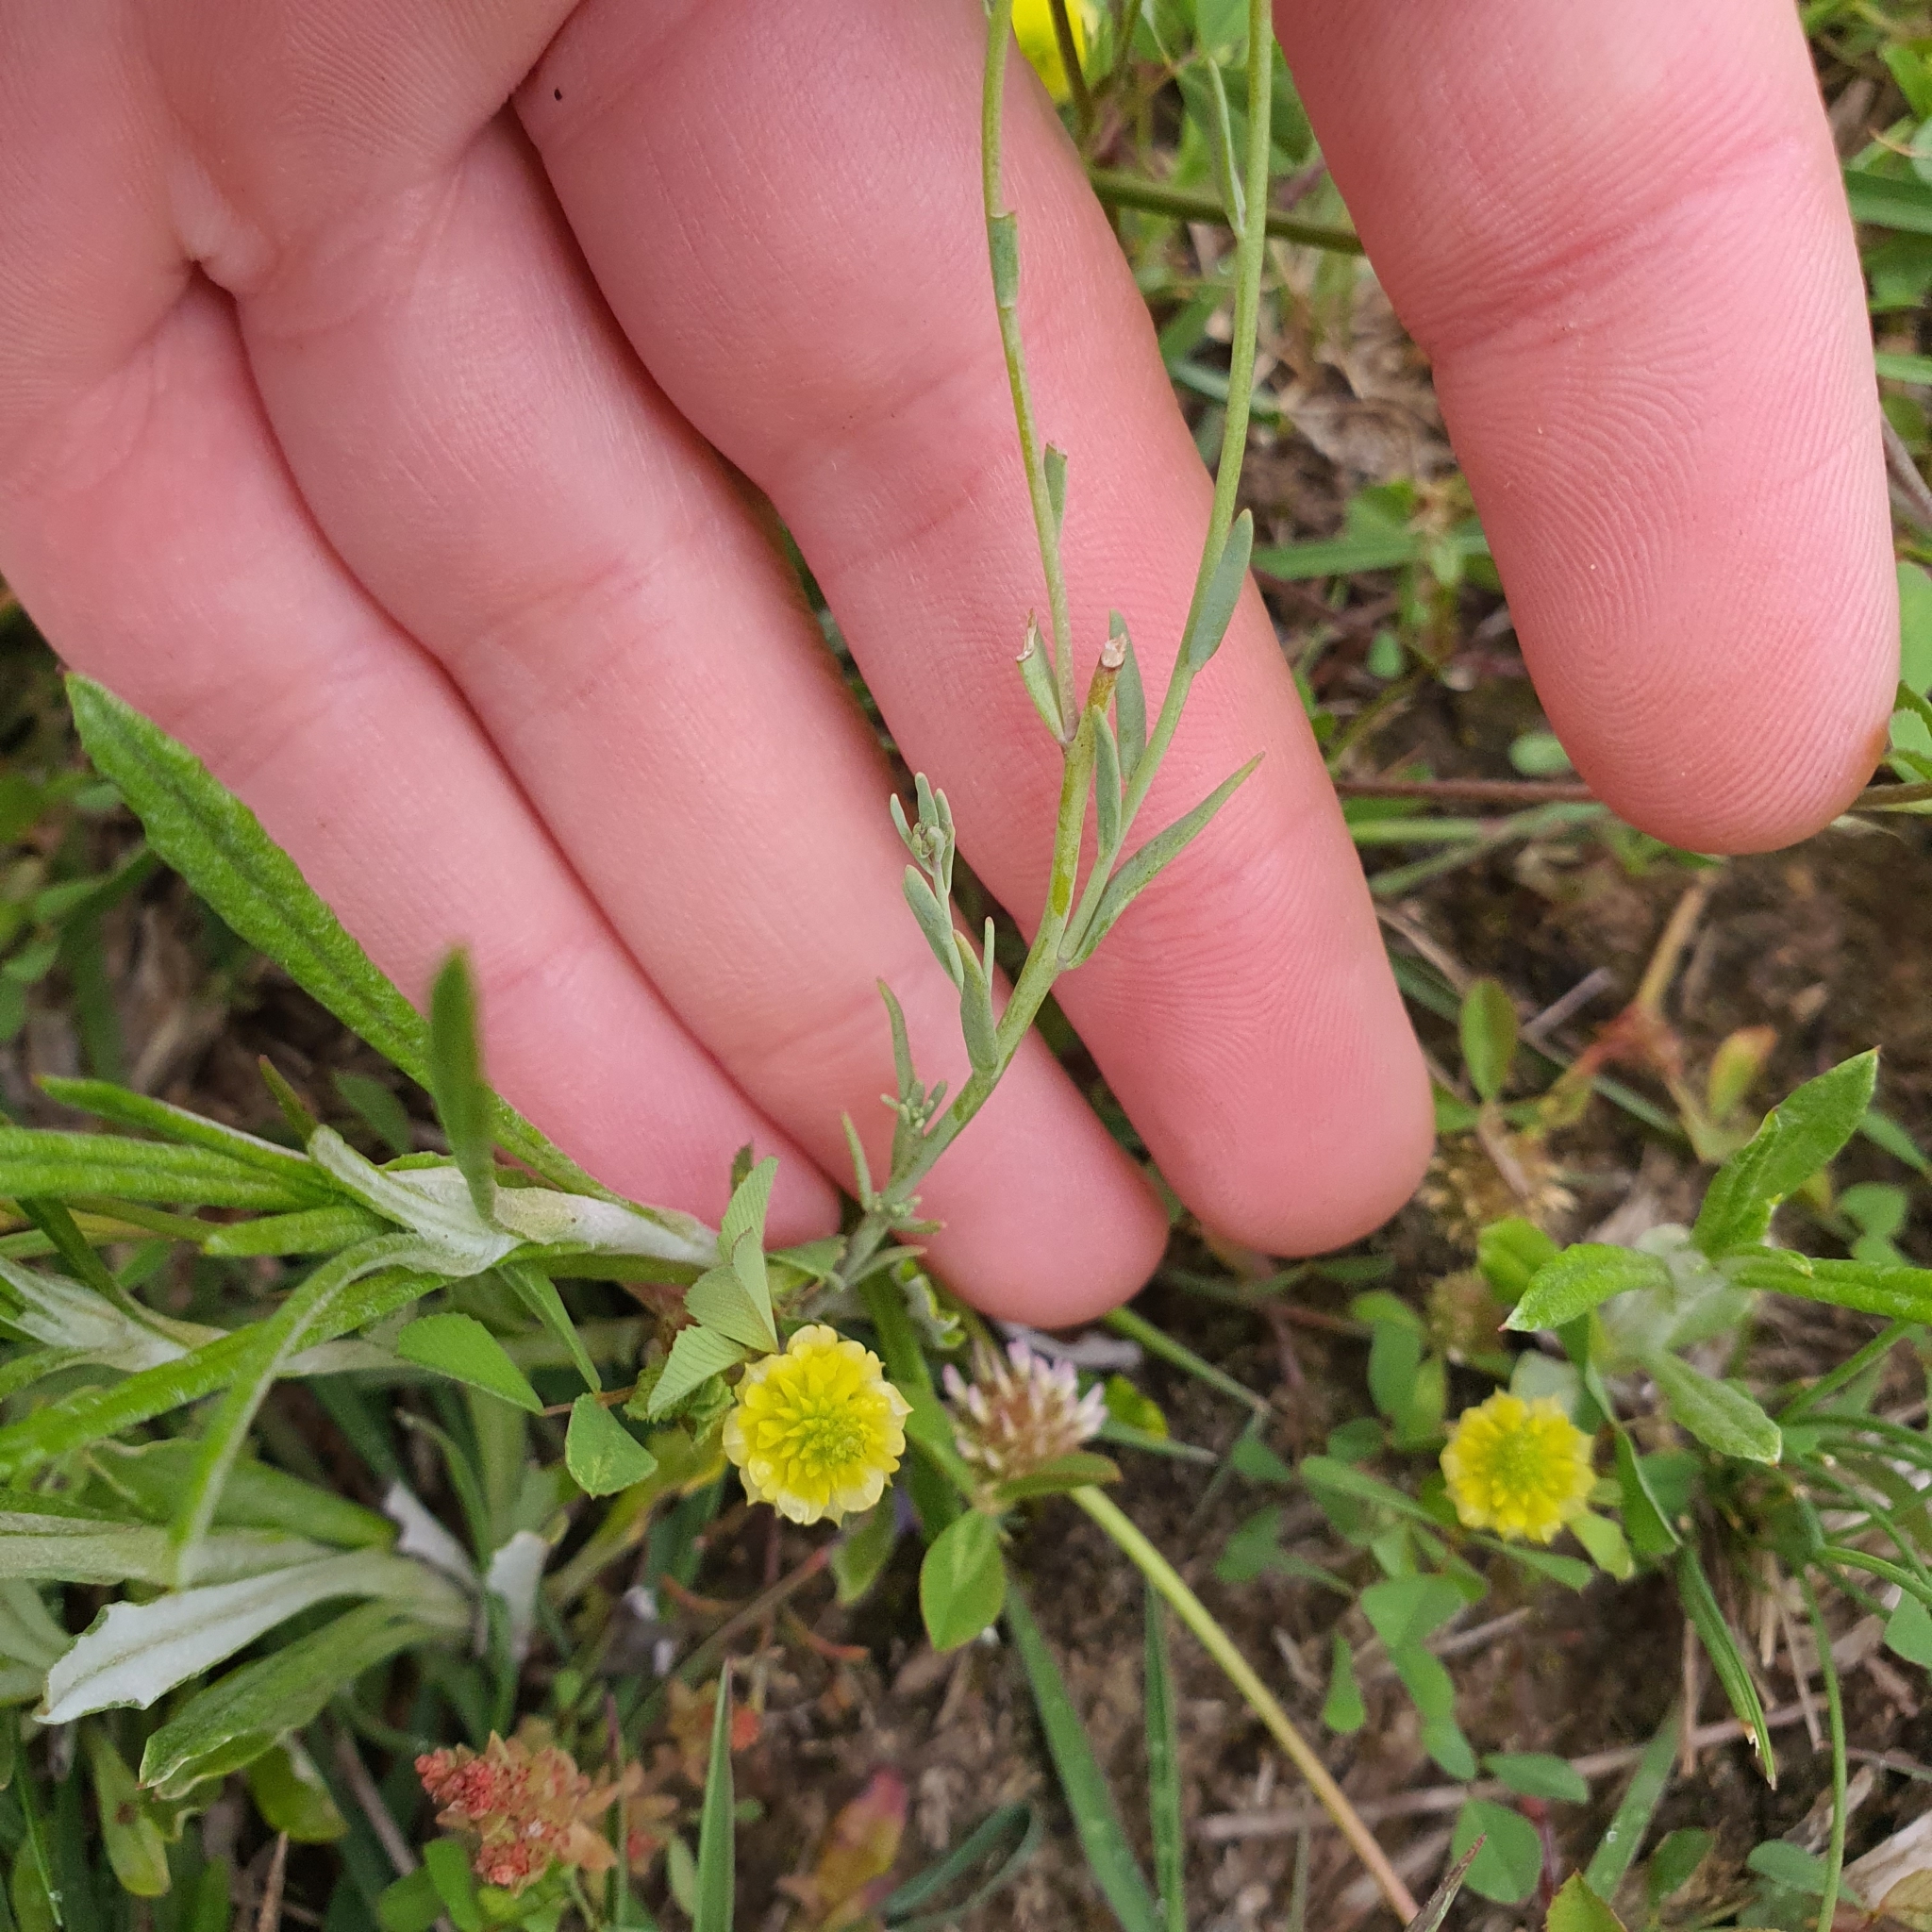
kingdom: Plantae
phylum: Tracheophyta
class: Magnoliopsida
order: Lamiales
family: Plantaginaceae
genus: Linaria
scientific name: Linaria arvensis
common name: Corn toadflax
